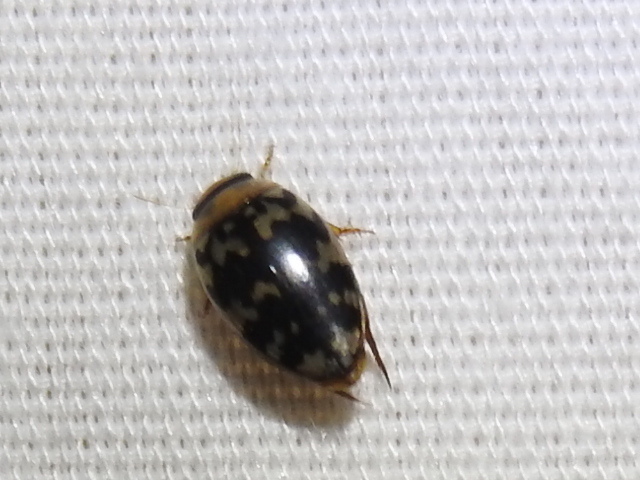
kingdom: Animalia
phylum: Arthropoda
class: Insecta
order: Coleoptera
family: Dytiscidae
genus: Laccophilus
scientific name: Laccophilus pictus
